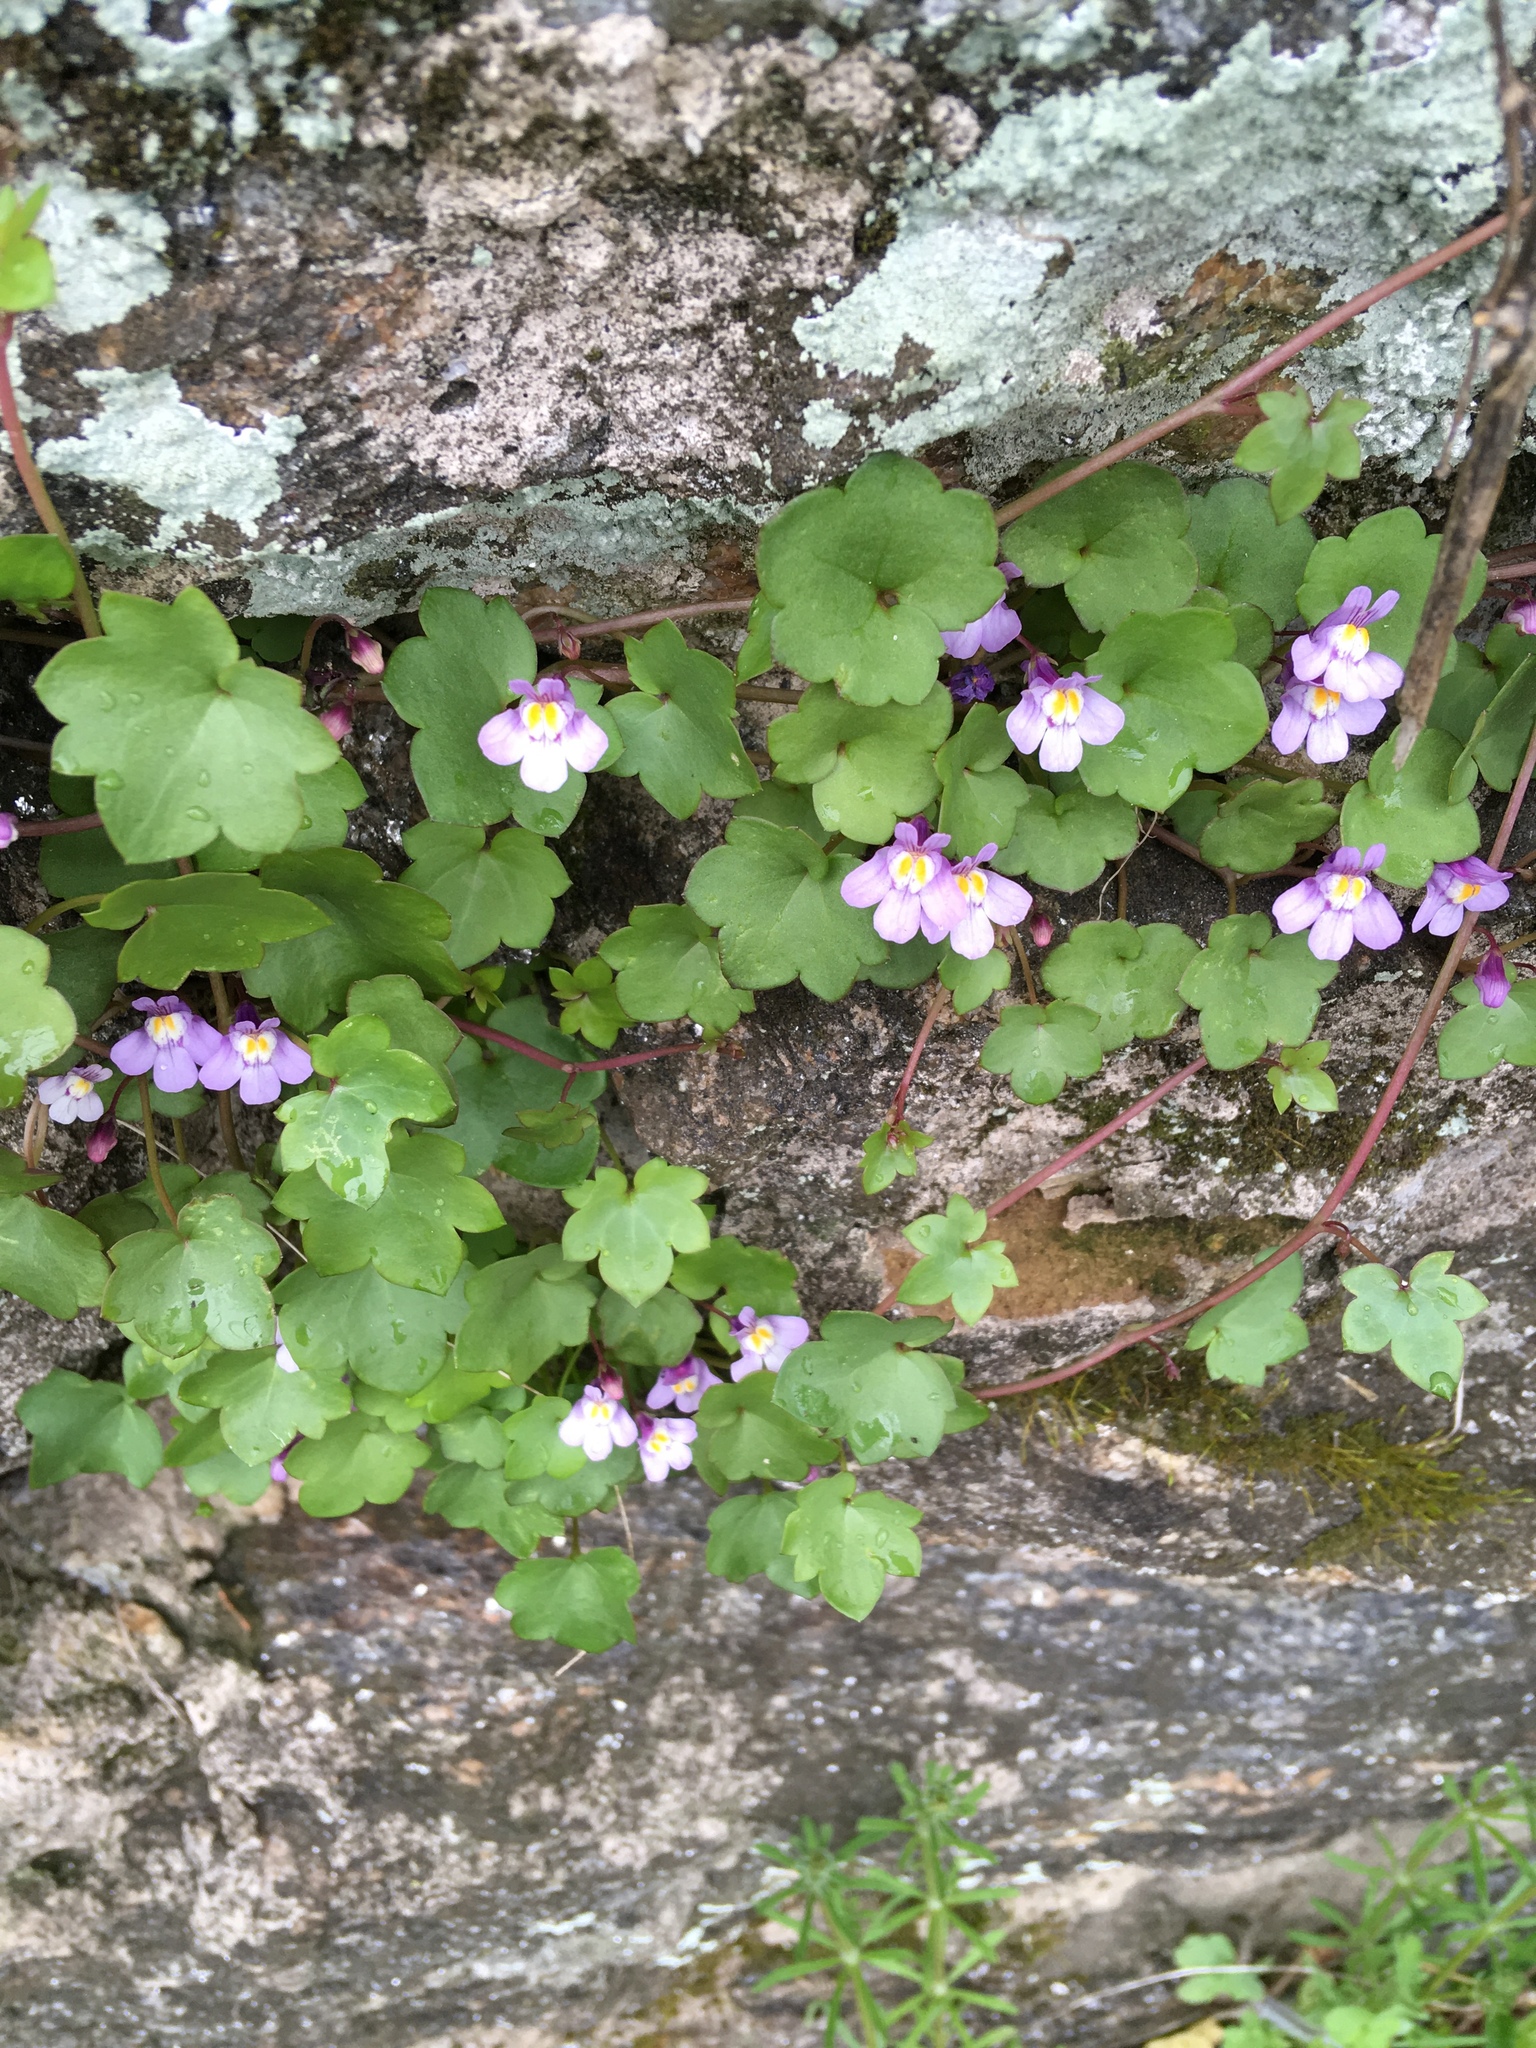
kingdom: Plantae
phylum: Tracheophyta
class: Magnoliopsida
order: Lamiales
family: Plantaginaceae
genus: Cymbalaria
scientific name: Cymbalaria muralis
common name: Ivy-leaved toadflax
